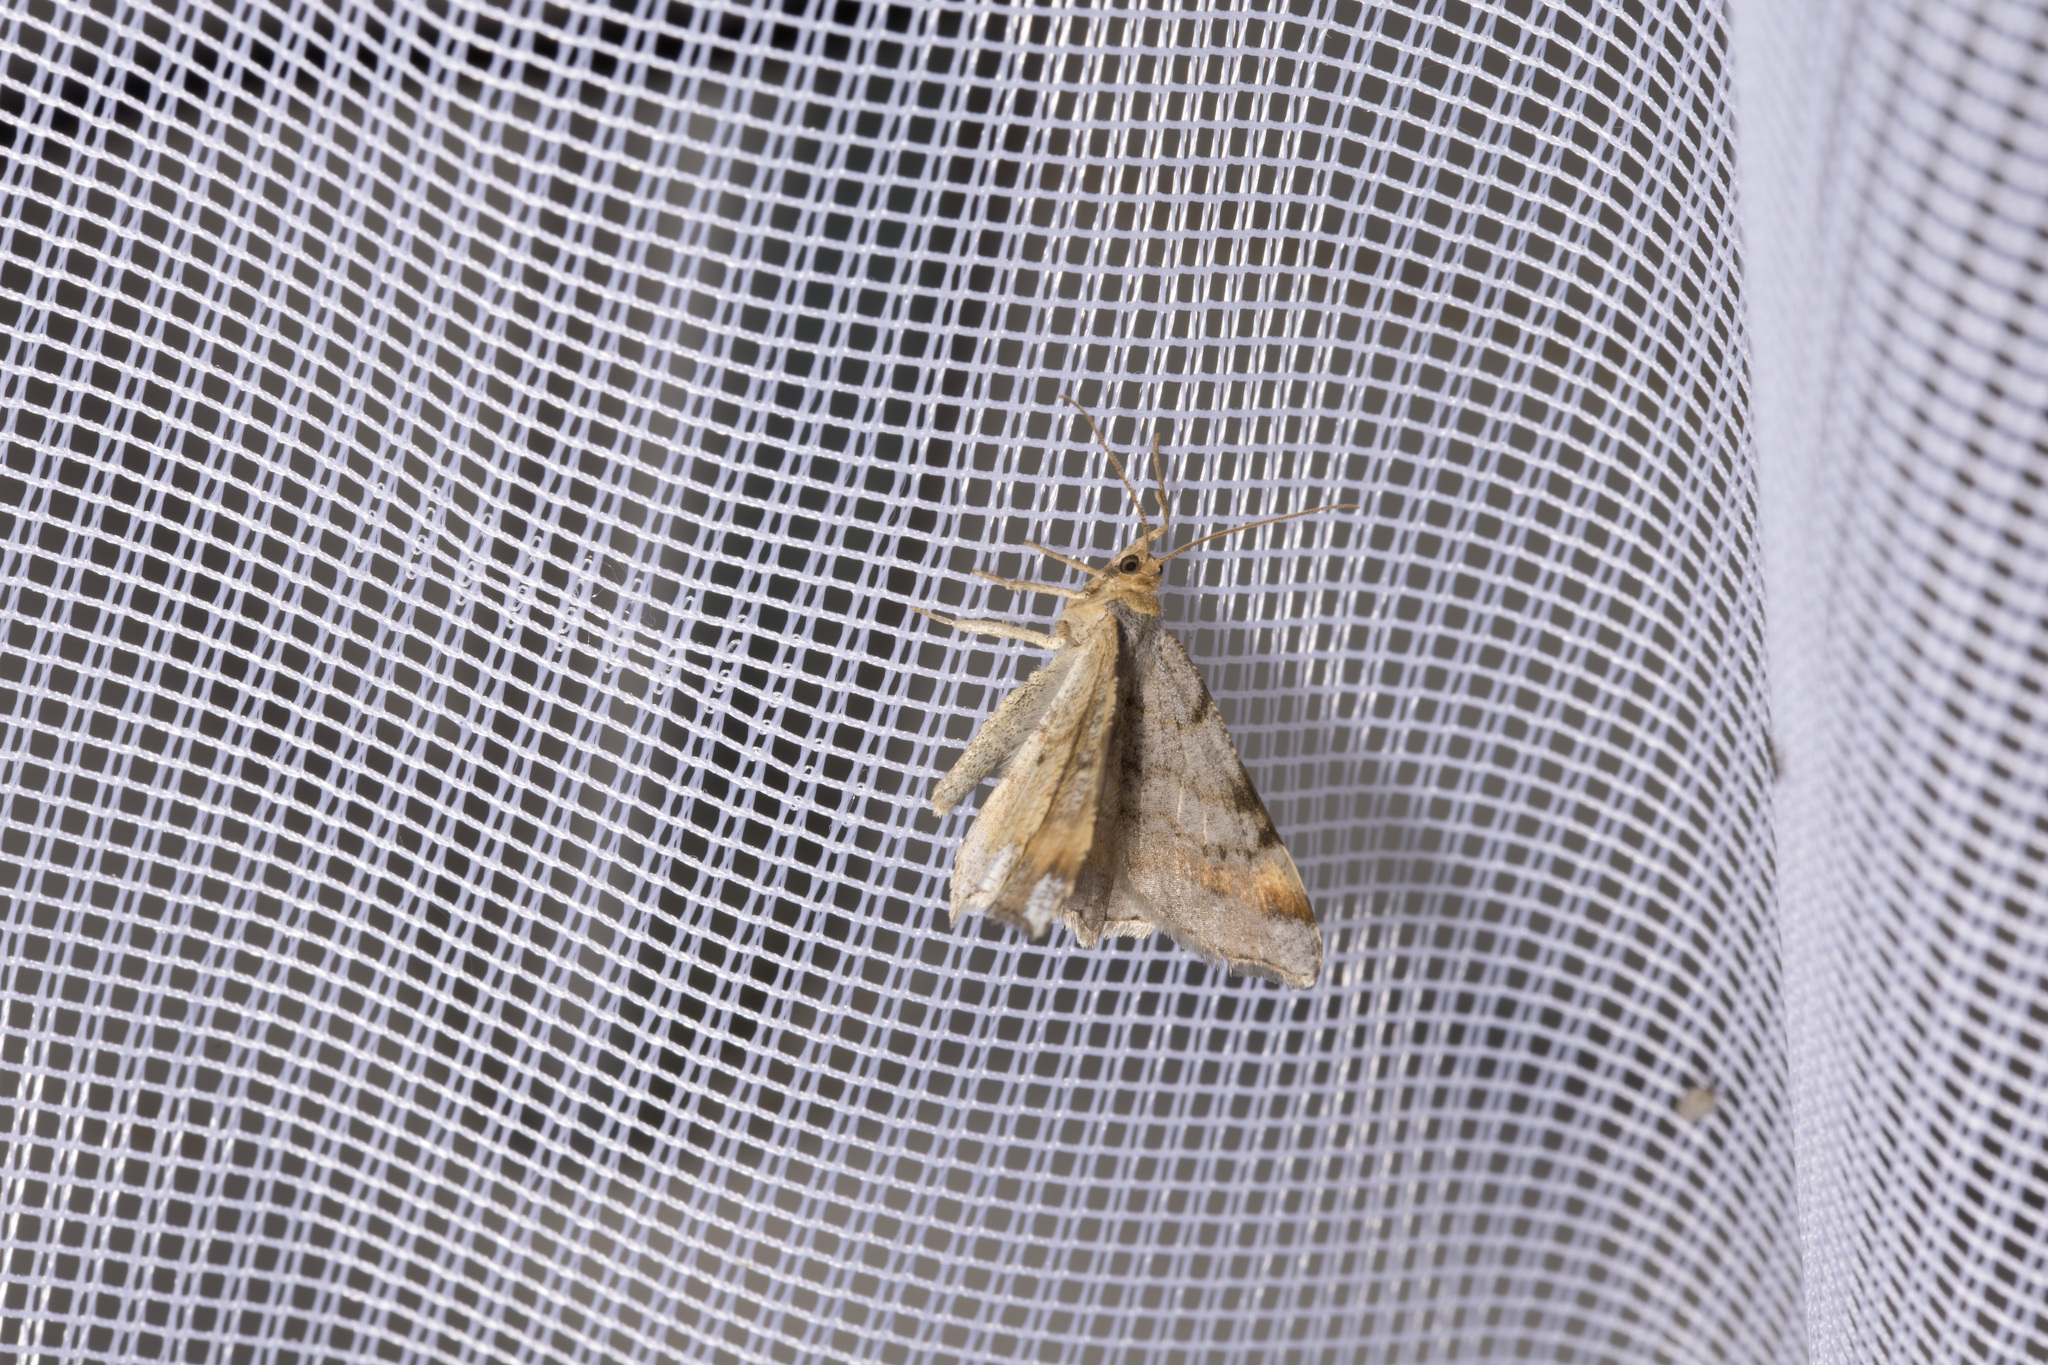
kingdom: Animalia
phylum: Arthropoda
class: Insecta
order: Lepidoptera
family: Geometridae
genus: Macaria
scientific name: Macaria liturata
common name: Tawny-barred angle
